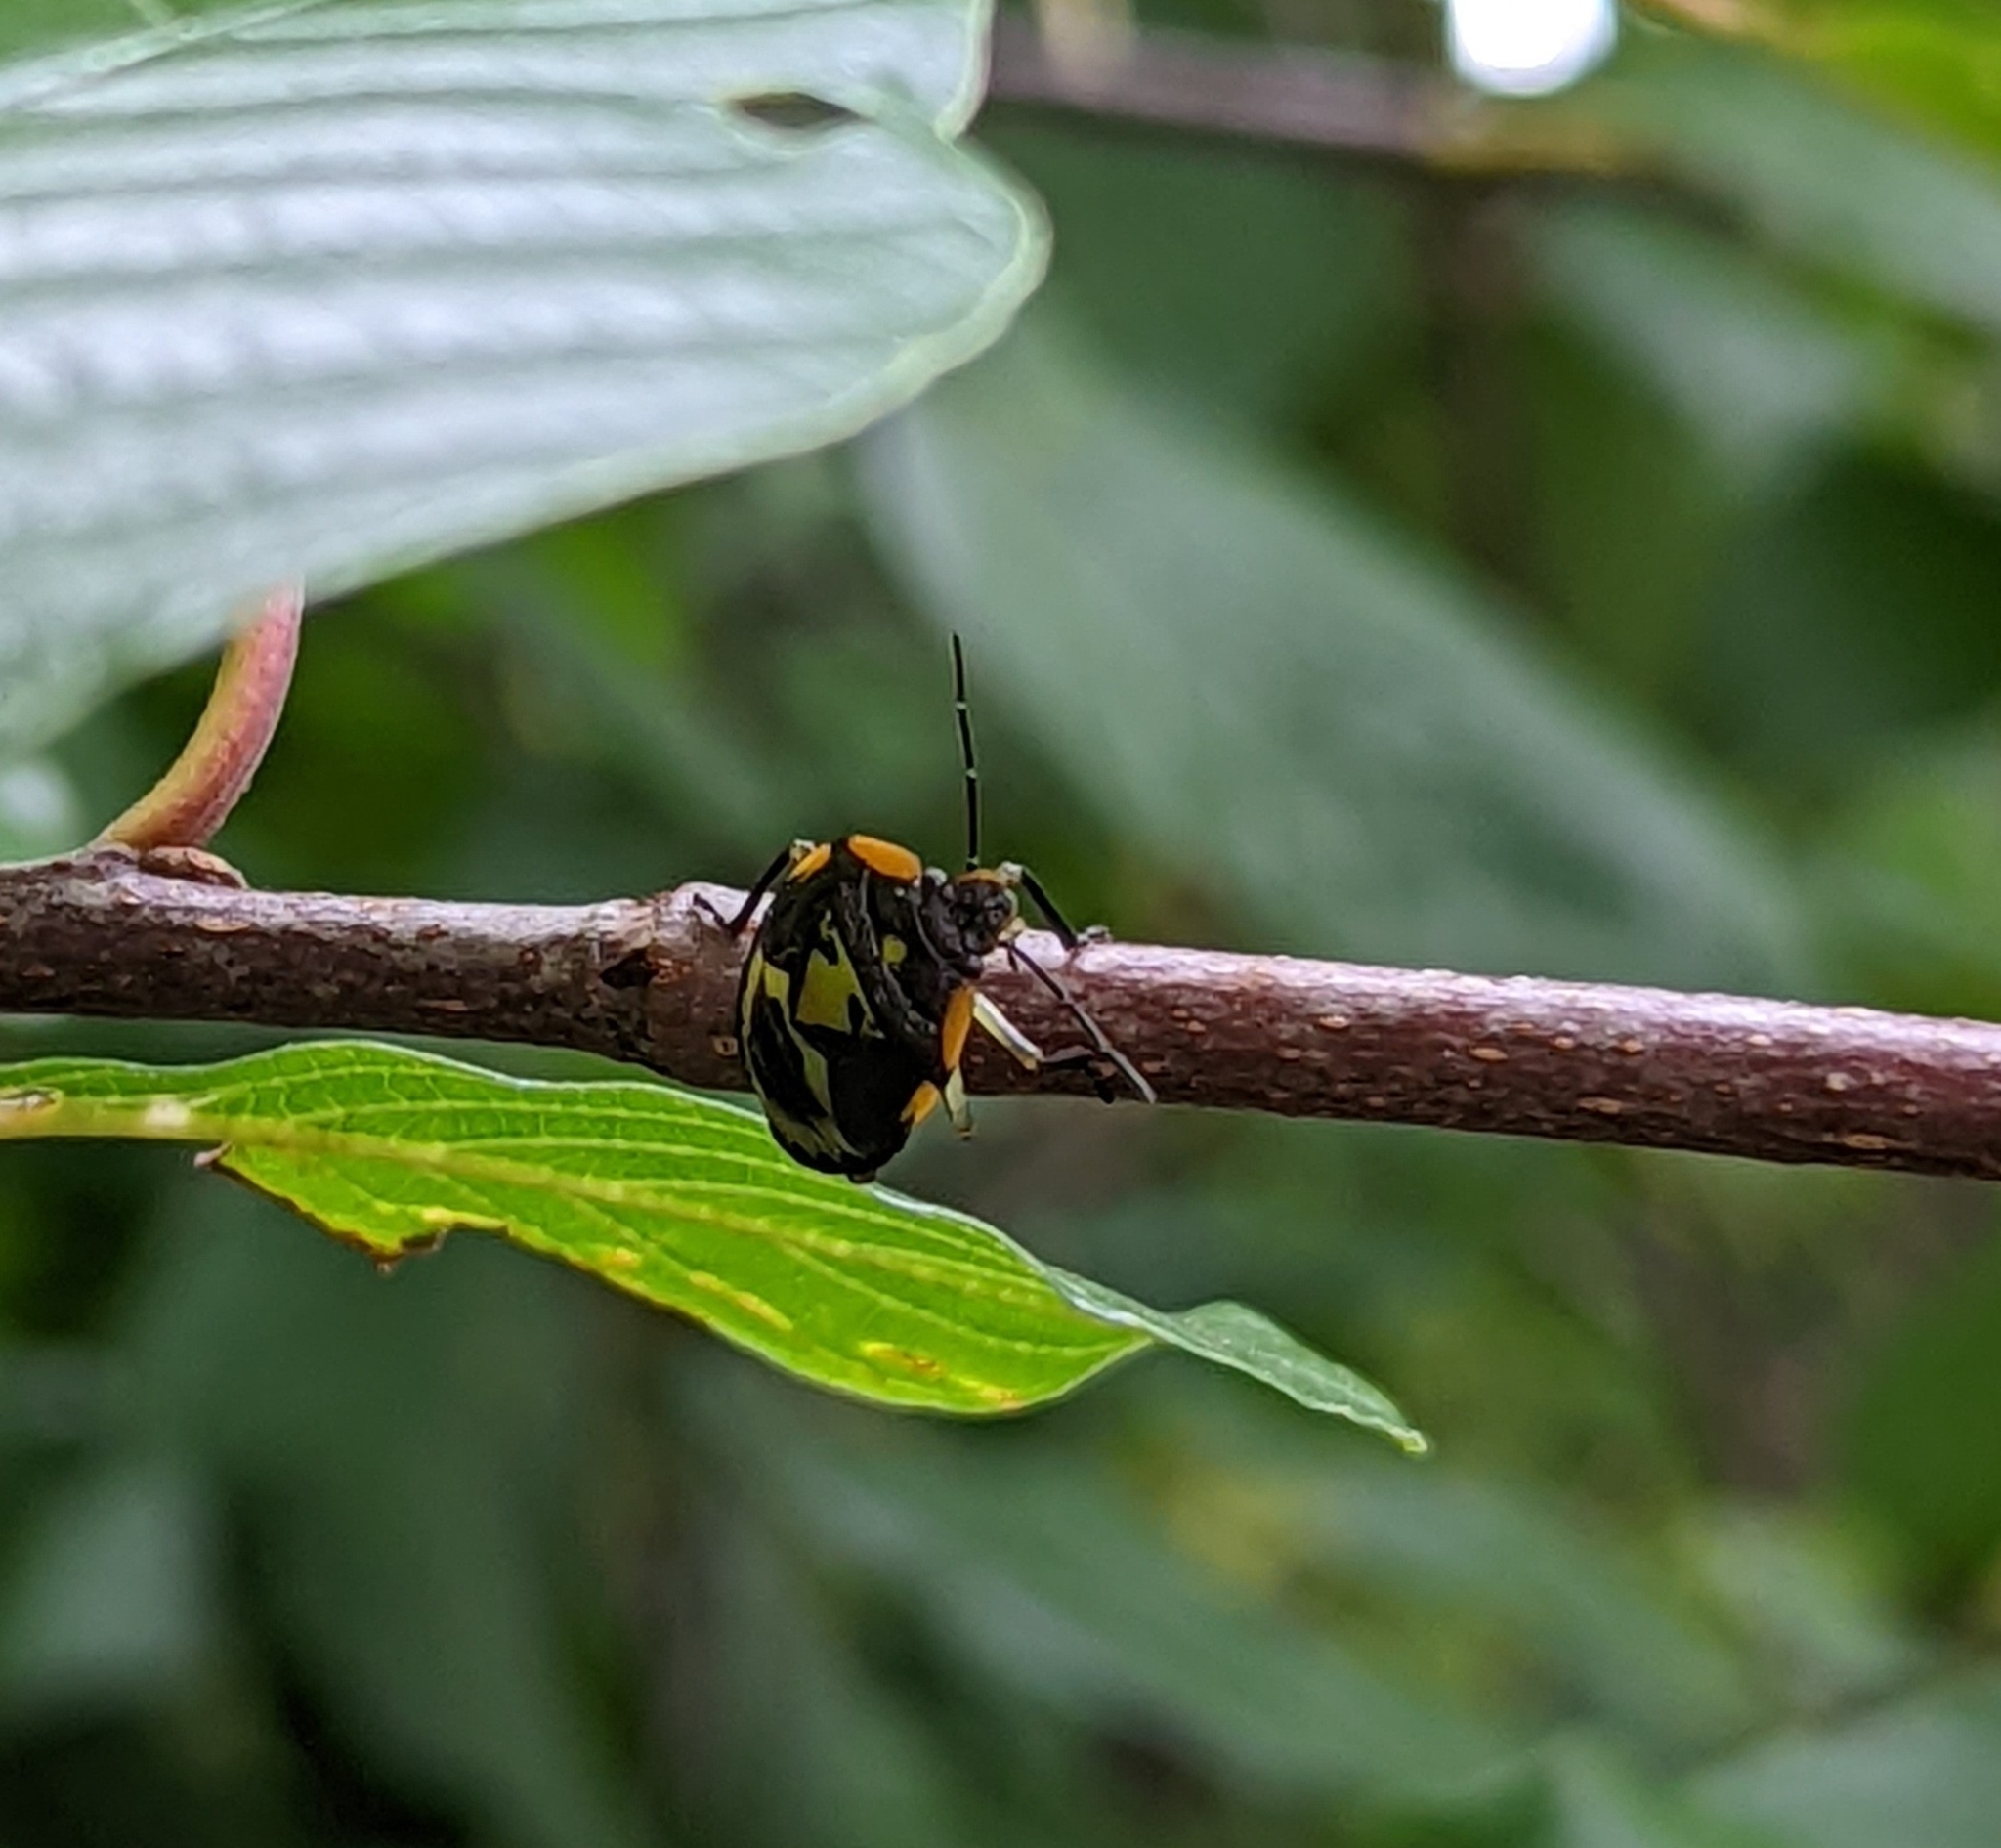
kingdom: Animalia
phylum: Arthropoda
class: Insecta
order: Hemiptera
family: Pentatomidae
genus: Chinavia
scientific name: Chinavia hilaris
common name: Green stink bug
